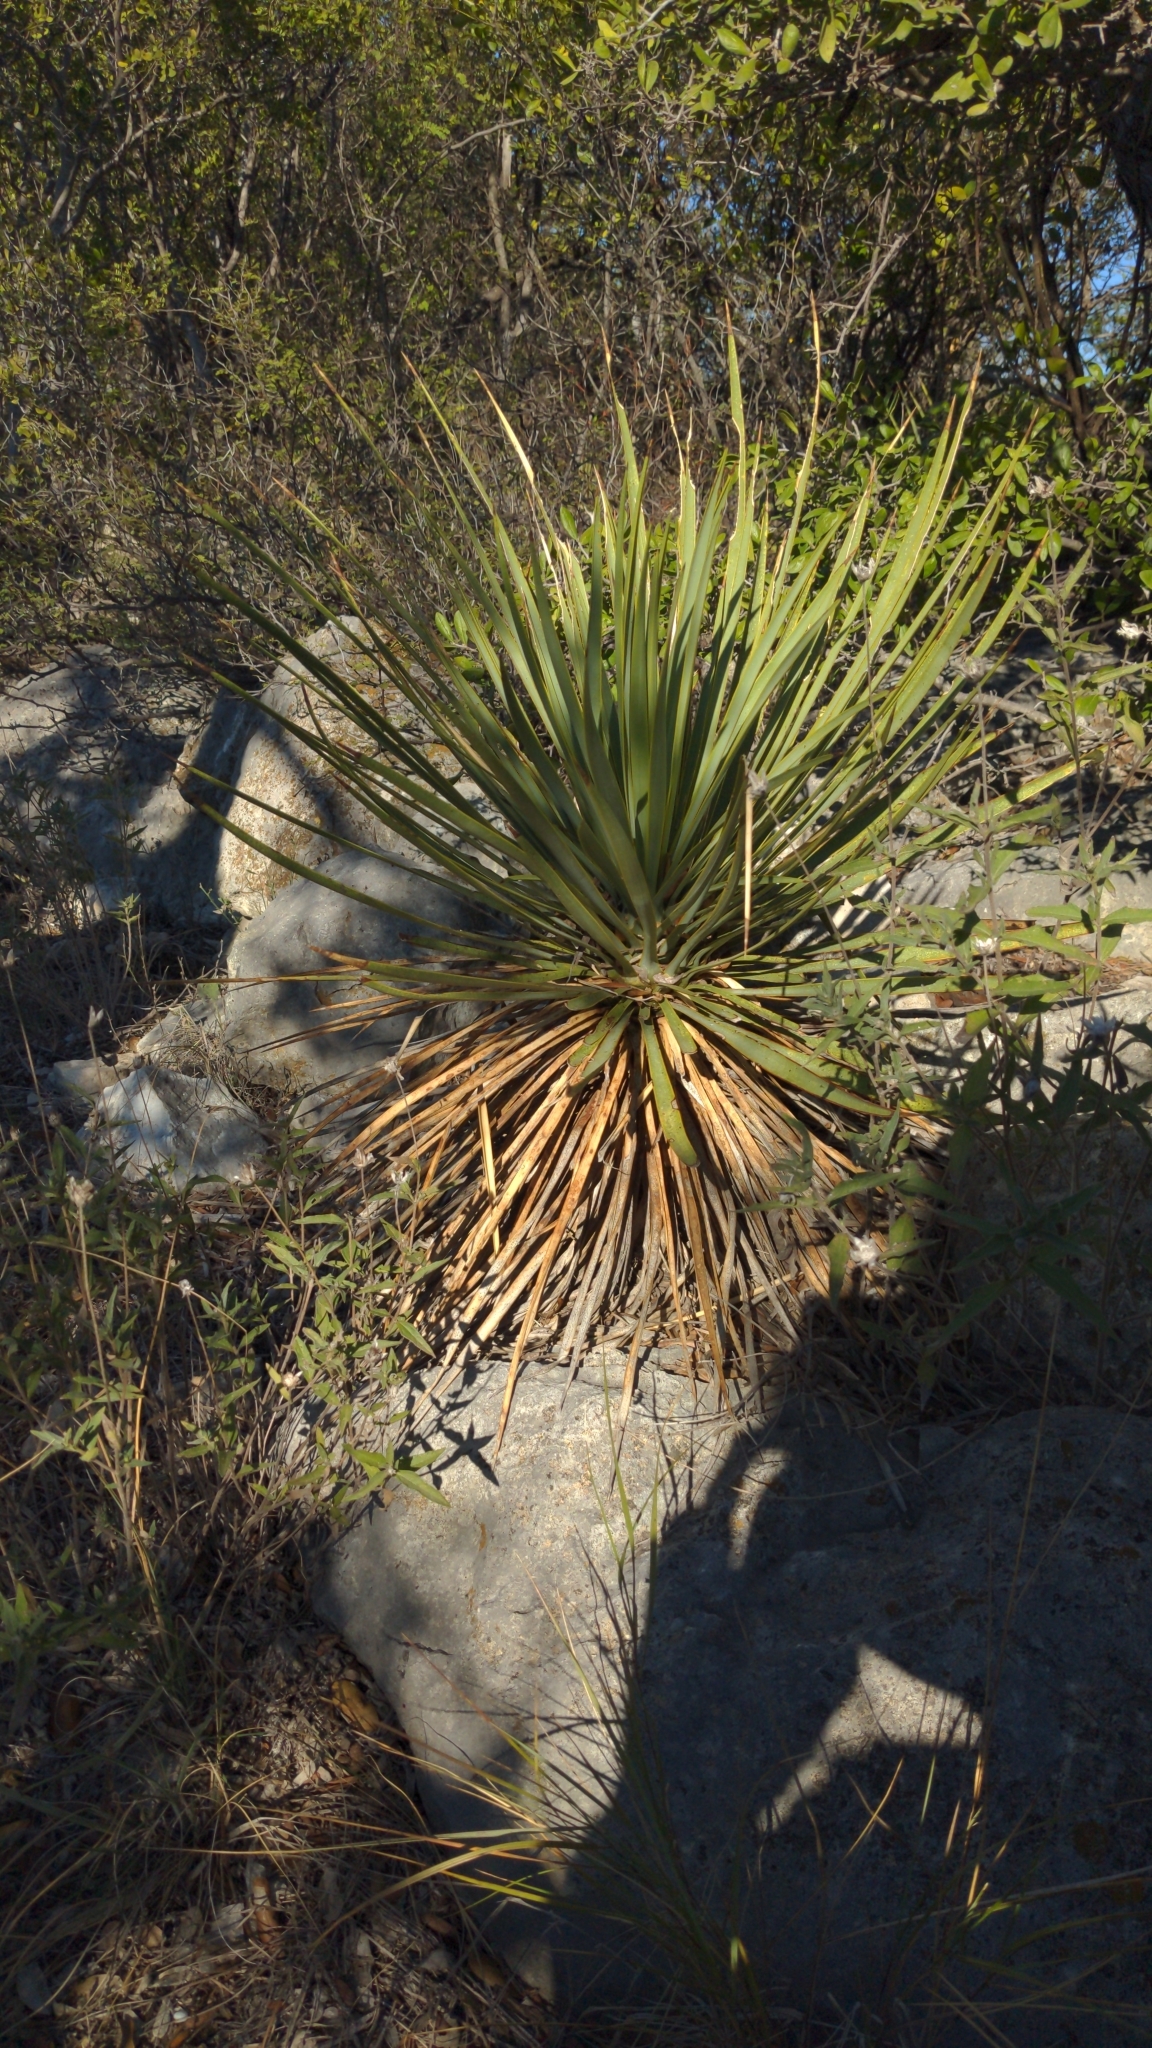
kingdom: Plantae
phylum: Tracheophyta
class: Liliopsida
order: Asparagales
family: Asparagaceae
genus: Yucca
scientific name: Yucca reverchonii
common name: San angelo yucca
